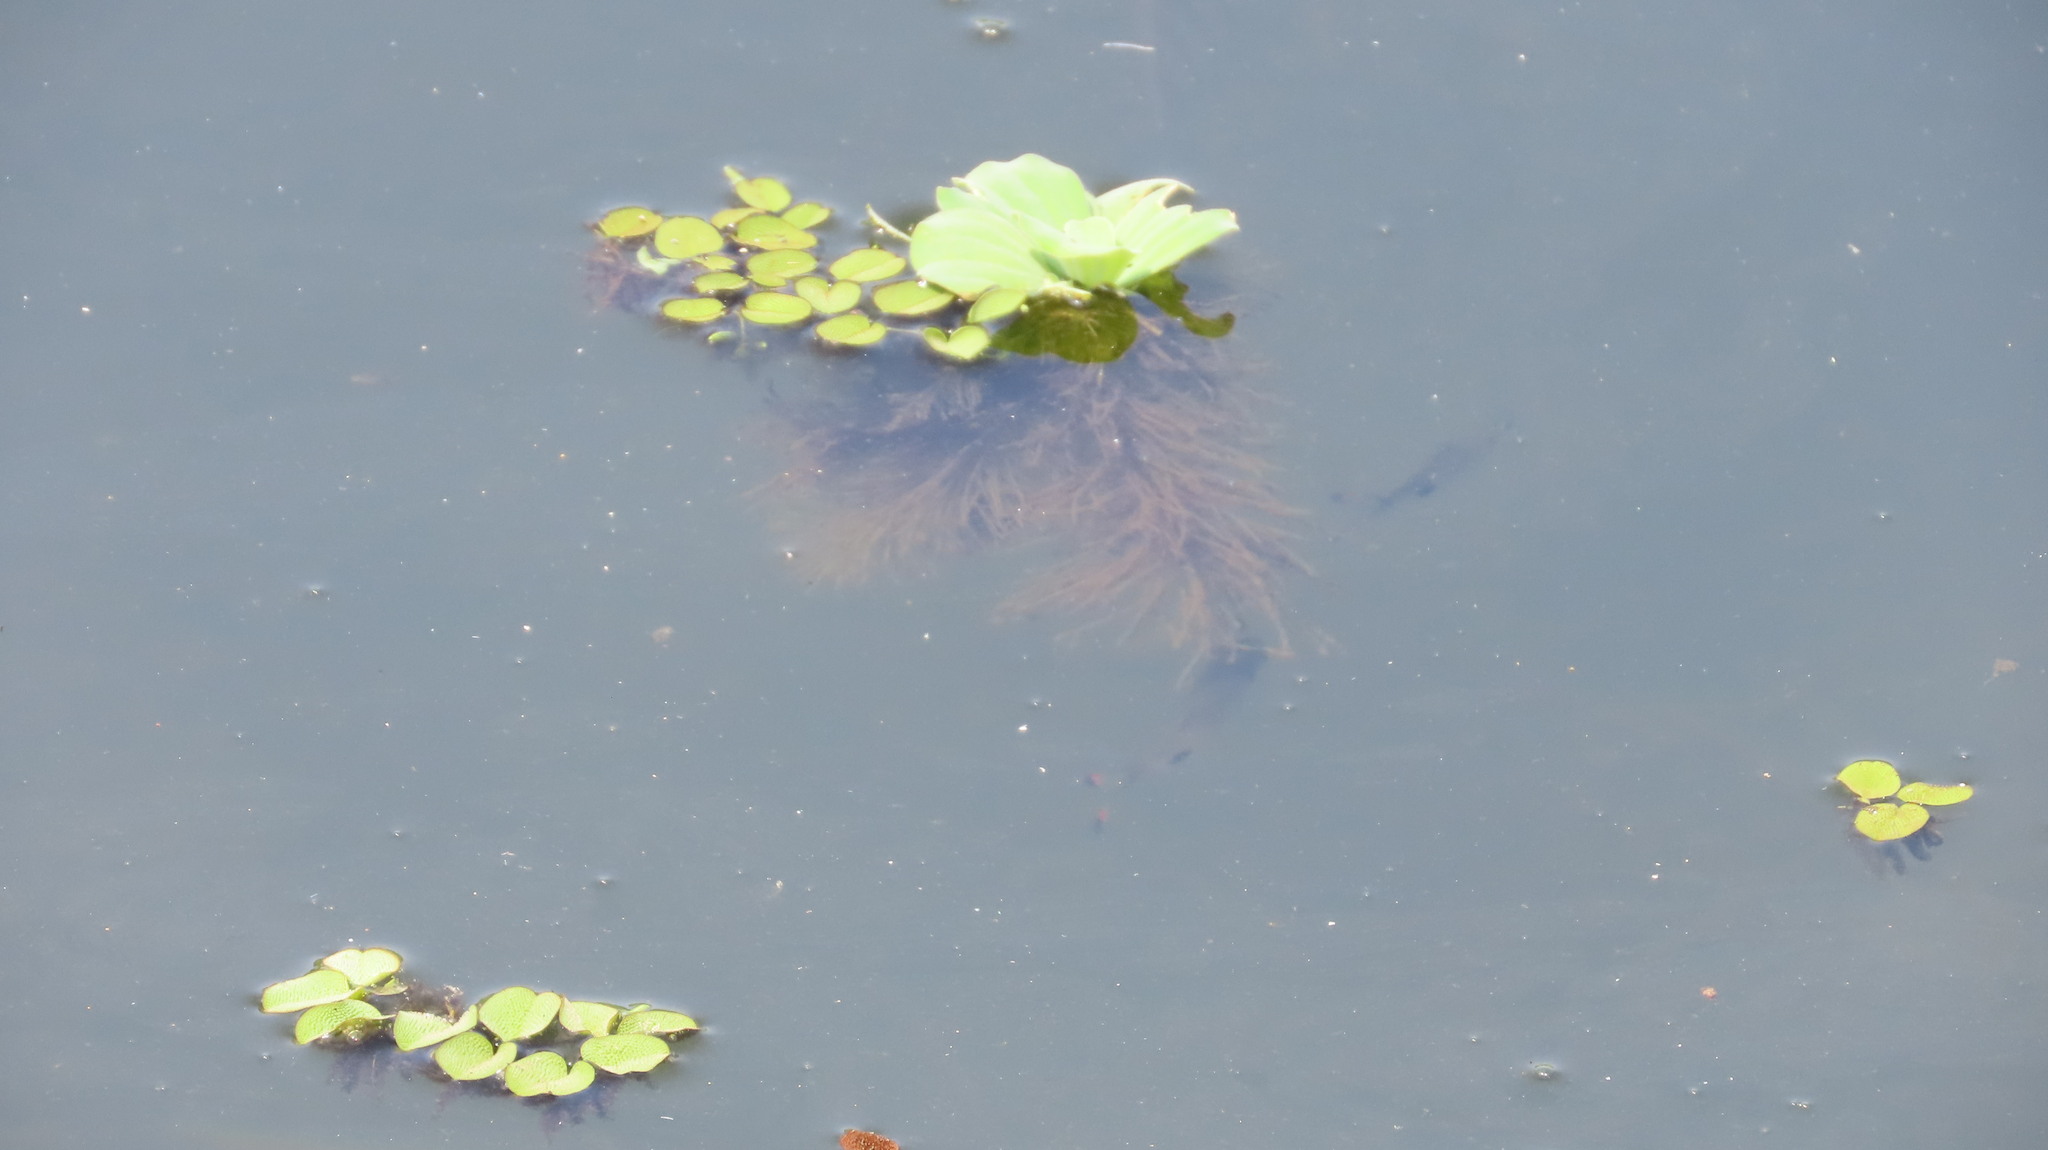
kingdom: Plantae
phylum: Tracheophyta
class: Liliopsida
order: Alismatales
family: Araceae
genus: Pistia
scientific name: Pistia stratiotes
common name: Water lettuce
